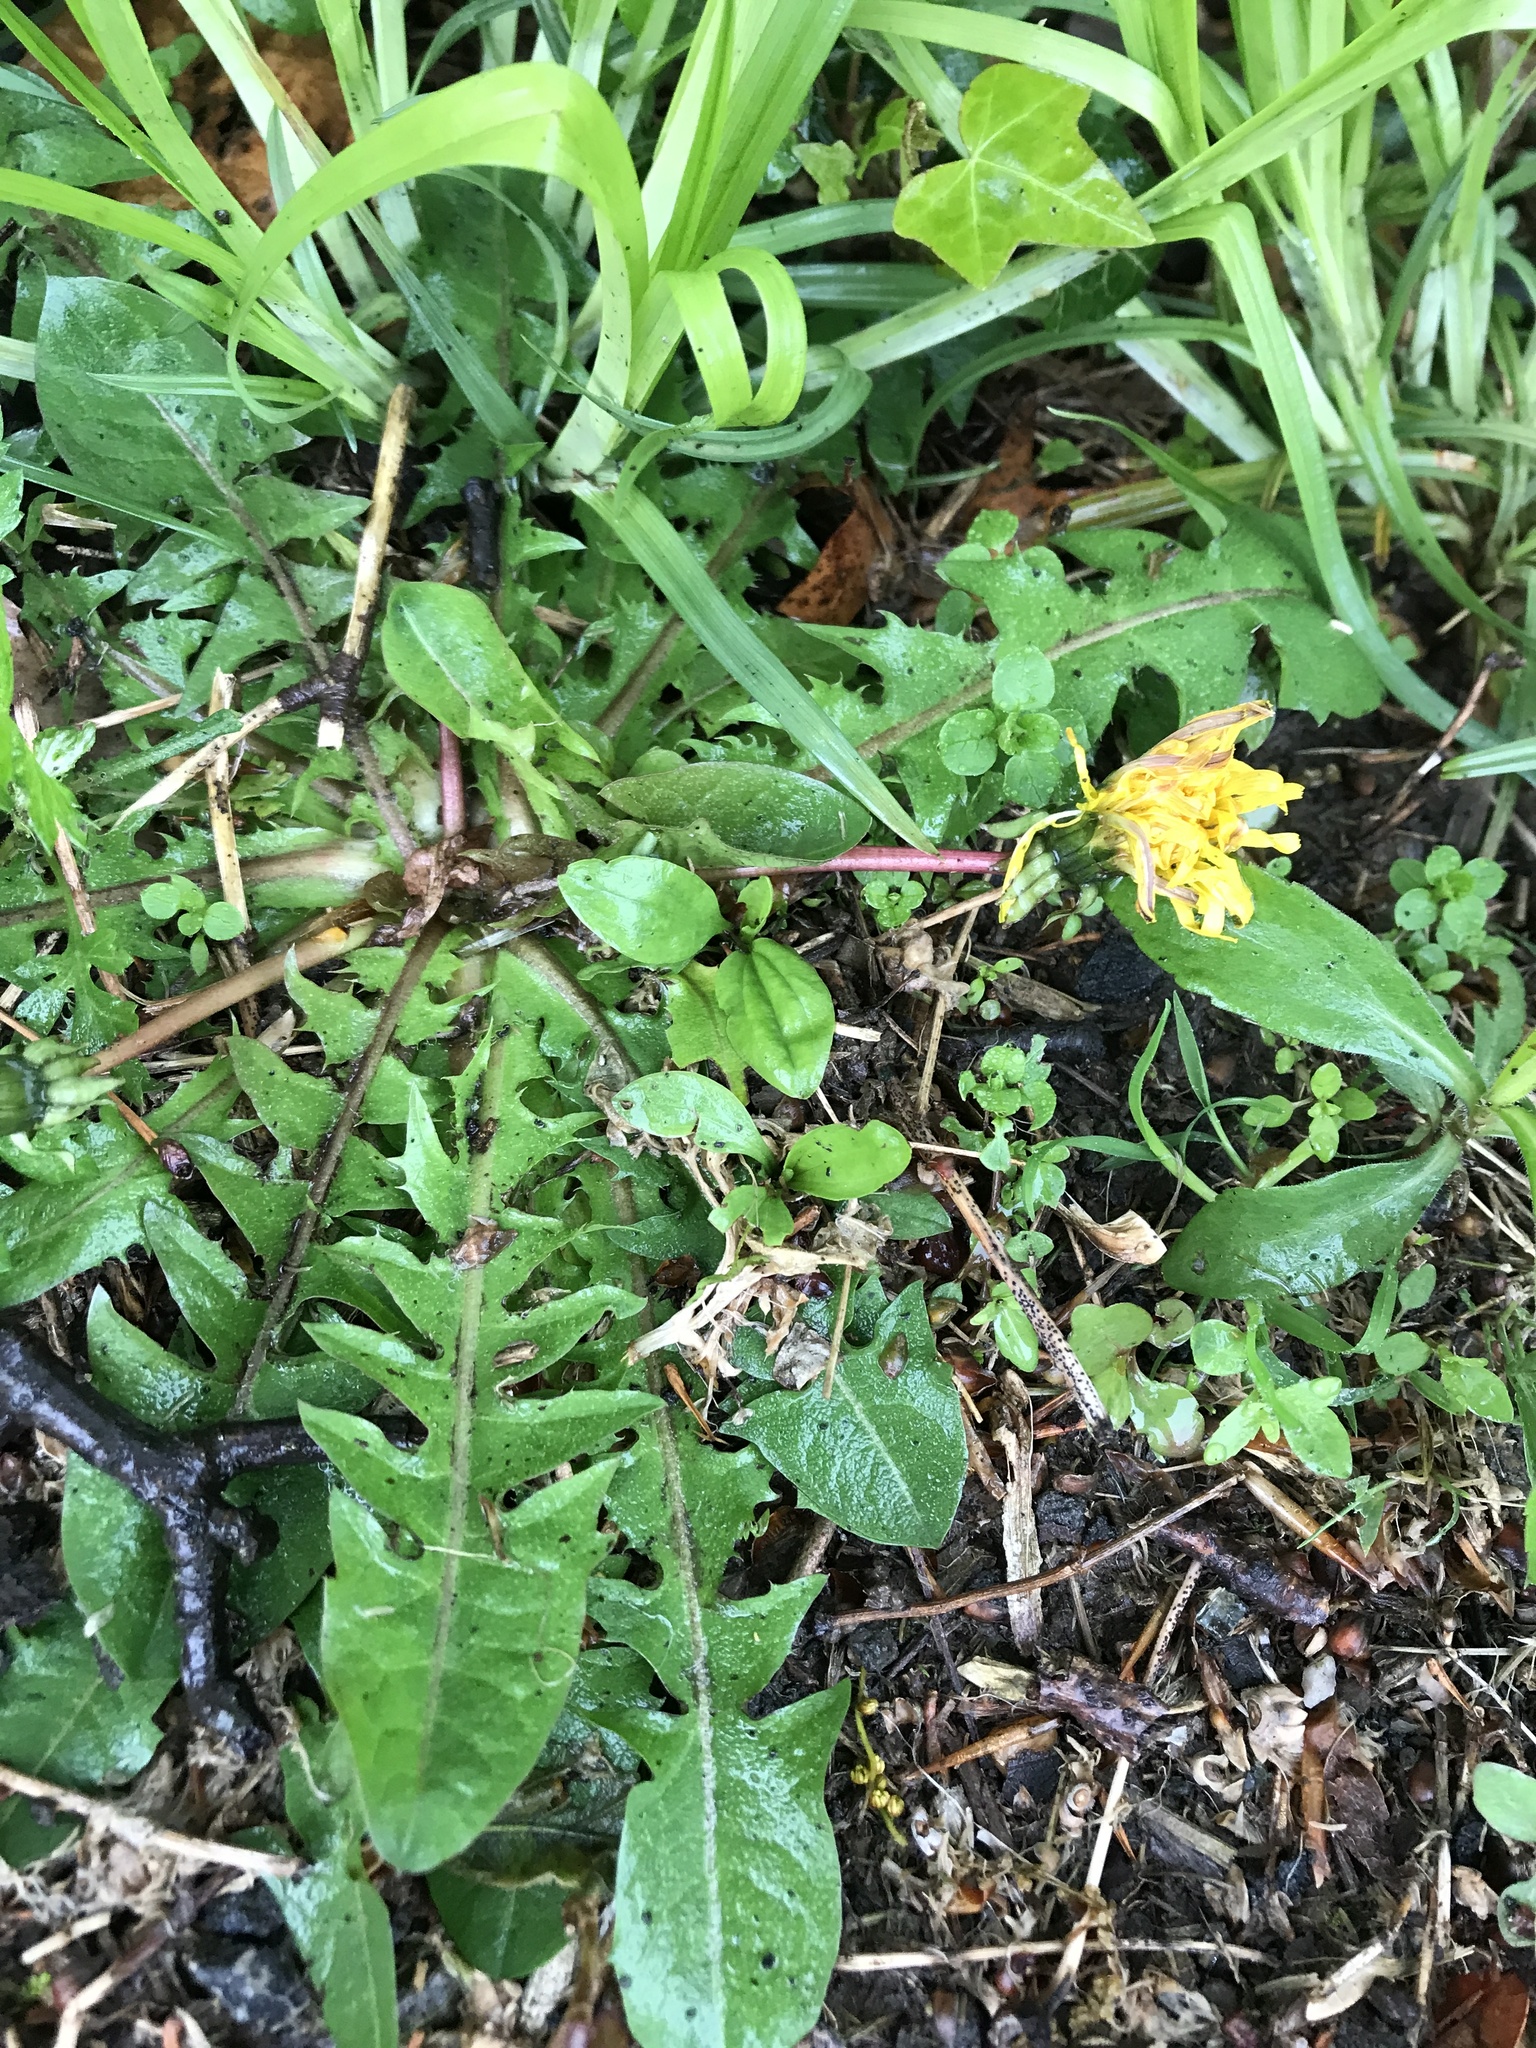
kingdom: Plantae
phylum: Tracheophyta
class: Magnoliopsida
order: Asterales
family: Asteraceae
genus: Taraxacum
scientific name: Taraxacum officinale
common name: Common dandelion
